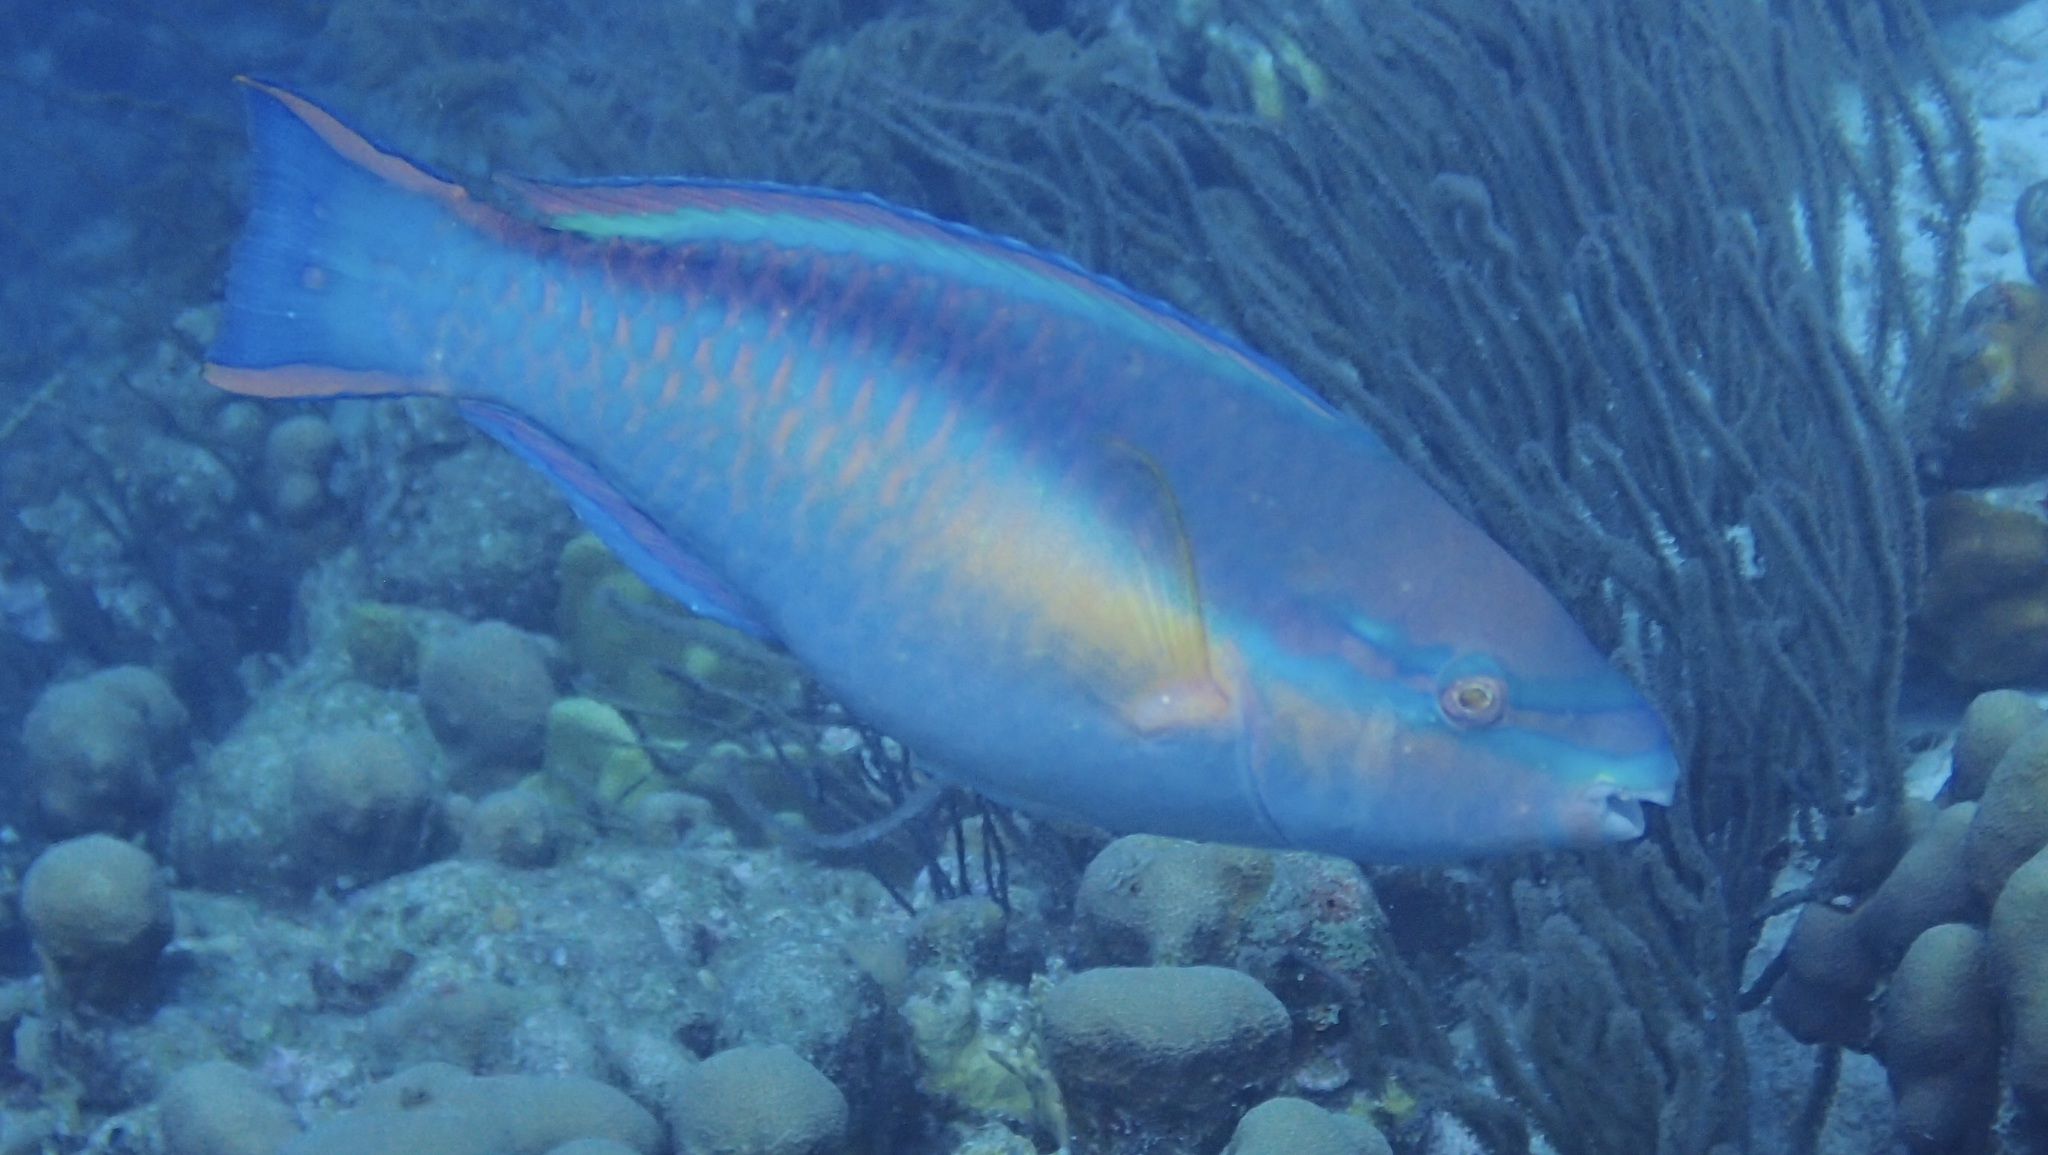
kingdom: Animalia
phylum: Chordata
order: Perciformes
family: Scaridae
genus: Scarus
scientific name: Scarus taeniopterus
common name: Princess parrotfish
